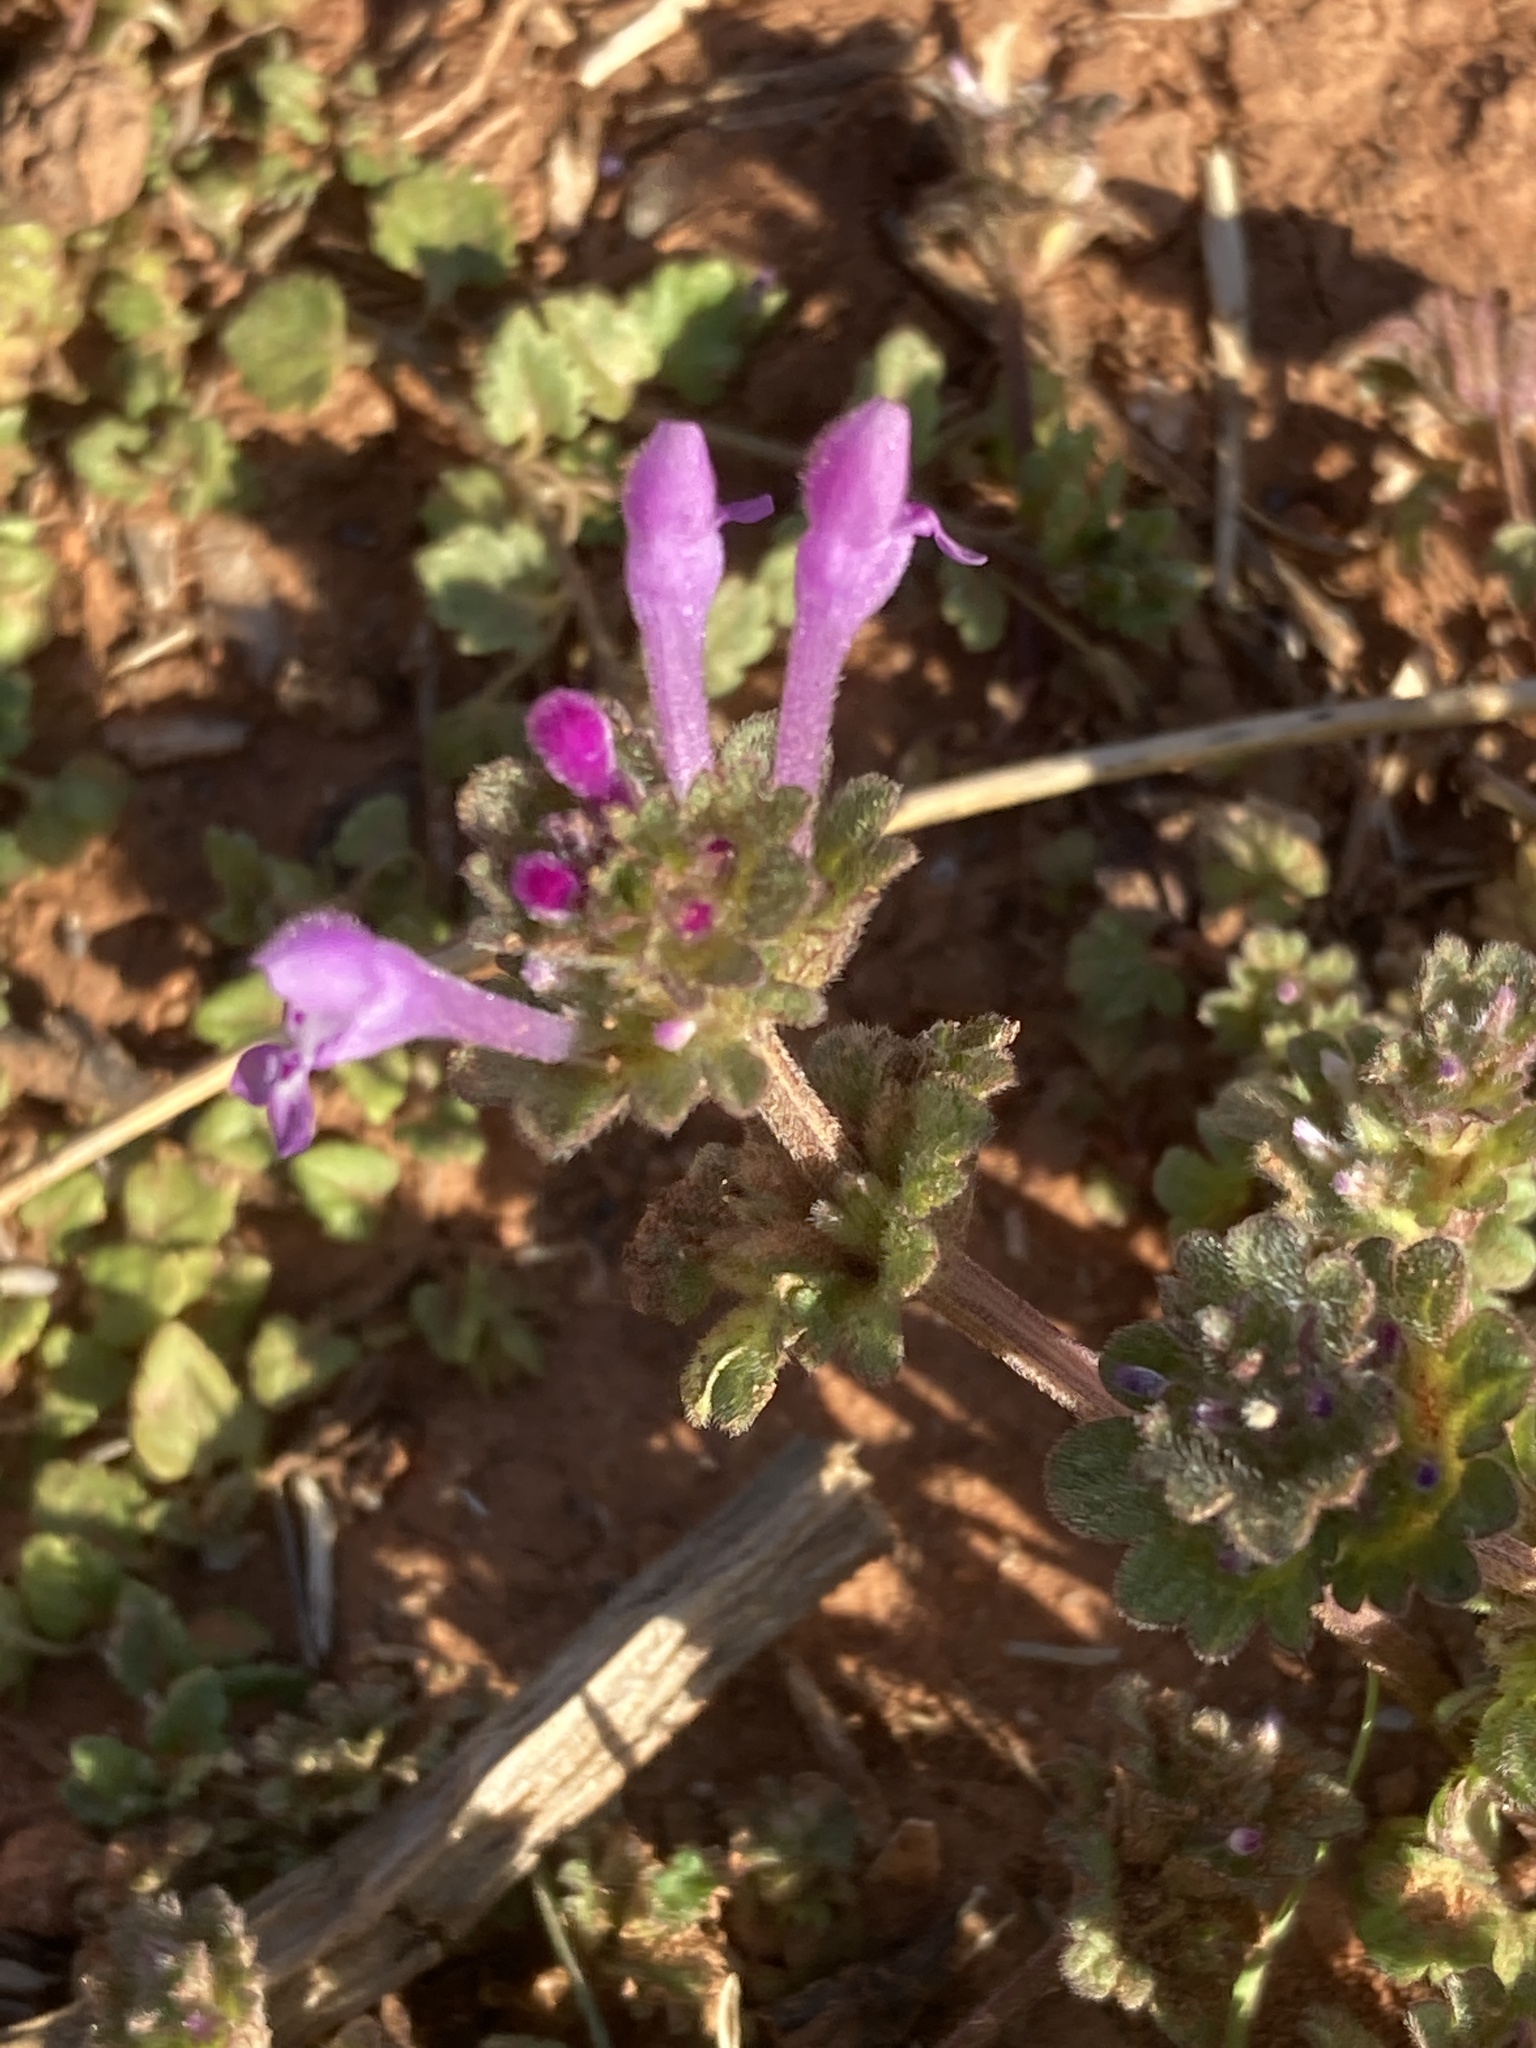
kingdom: Plantae
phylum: Tracheophyta
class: Magnoliopsida
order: Lamiales
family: Lamiaceae
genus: Lamium
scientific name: Lamium amplexicaule
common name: Henbit dead-nettle
